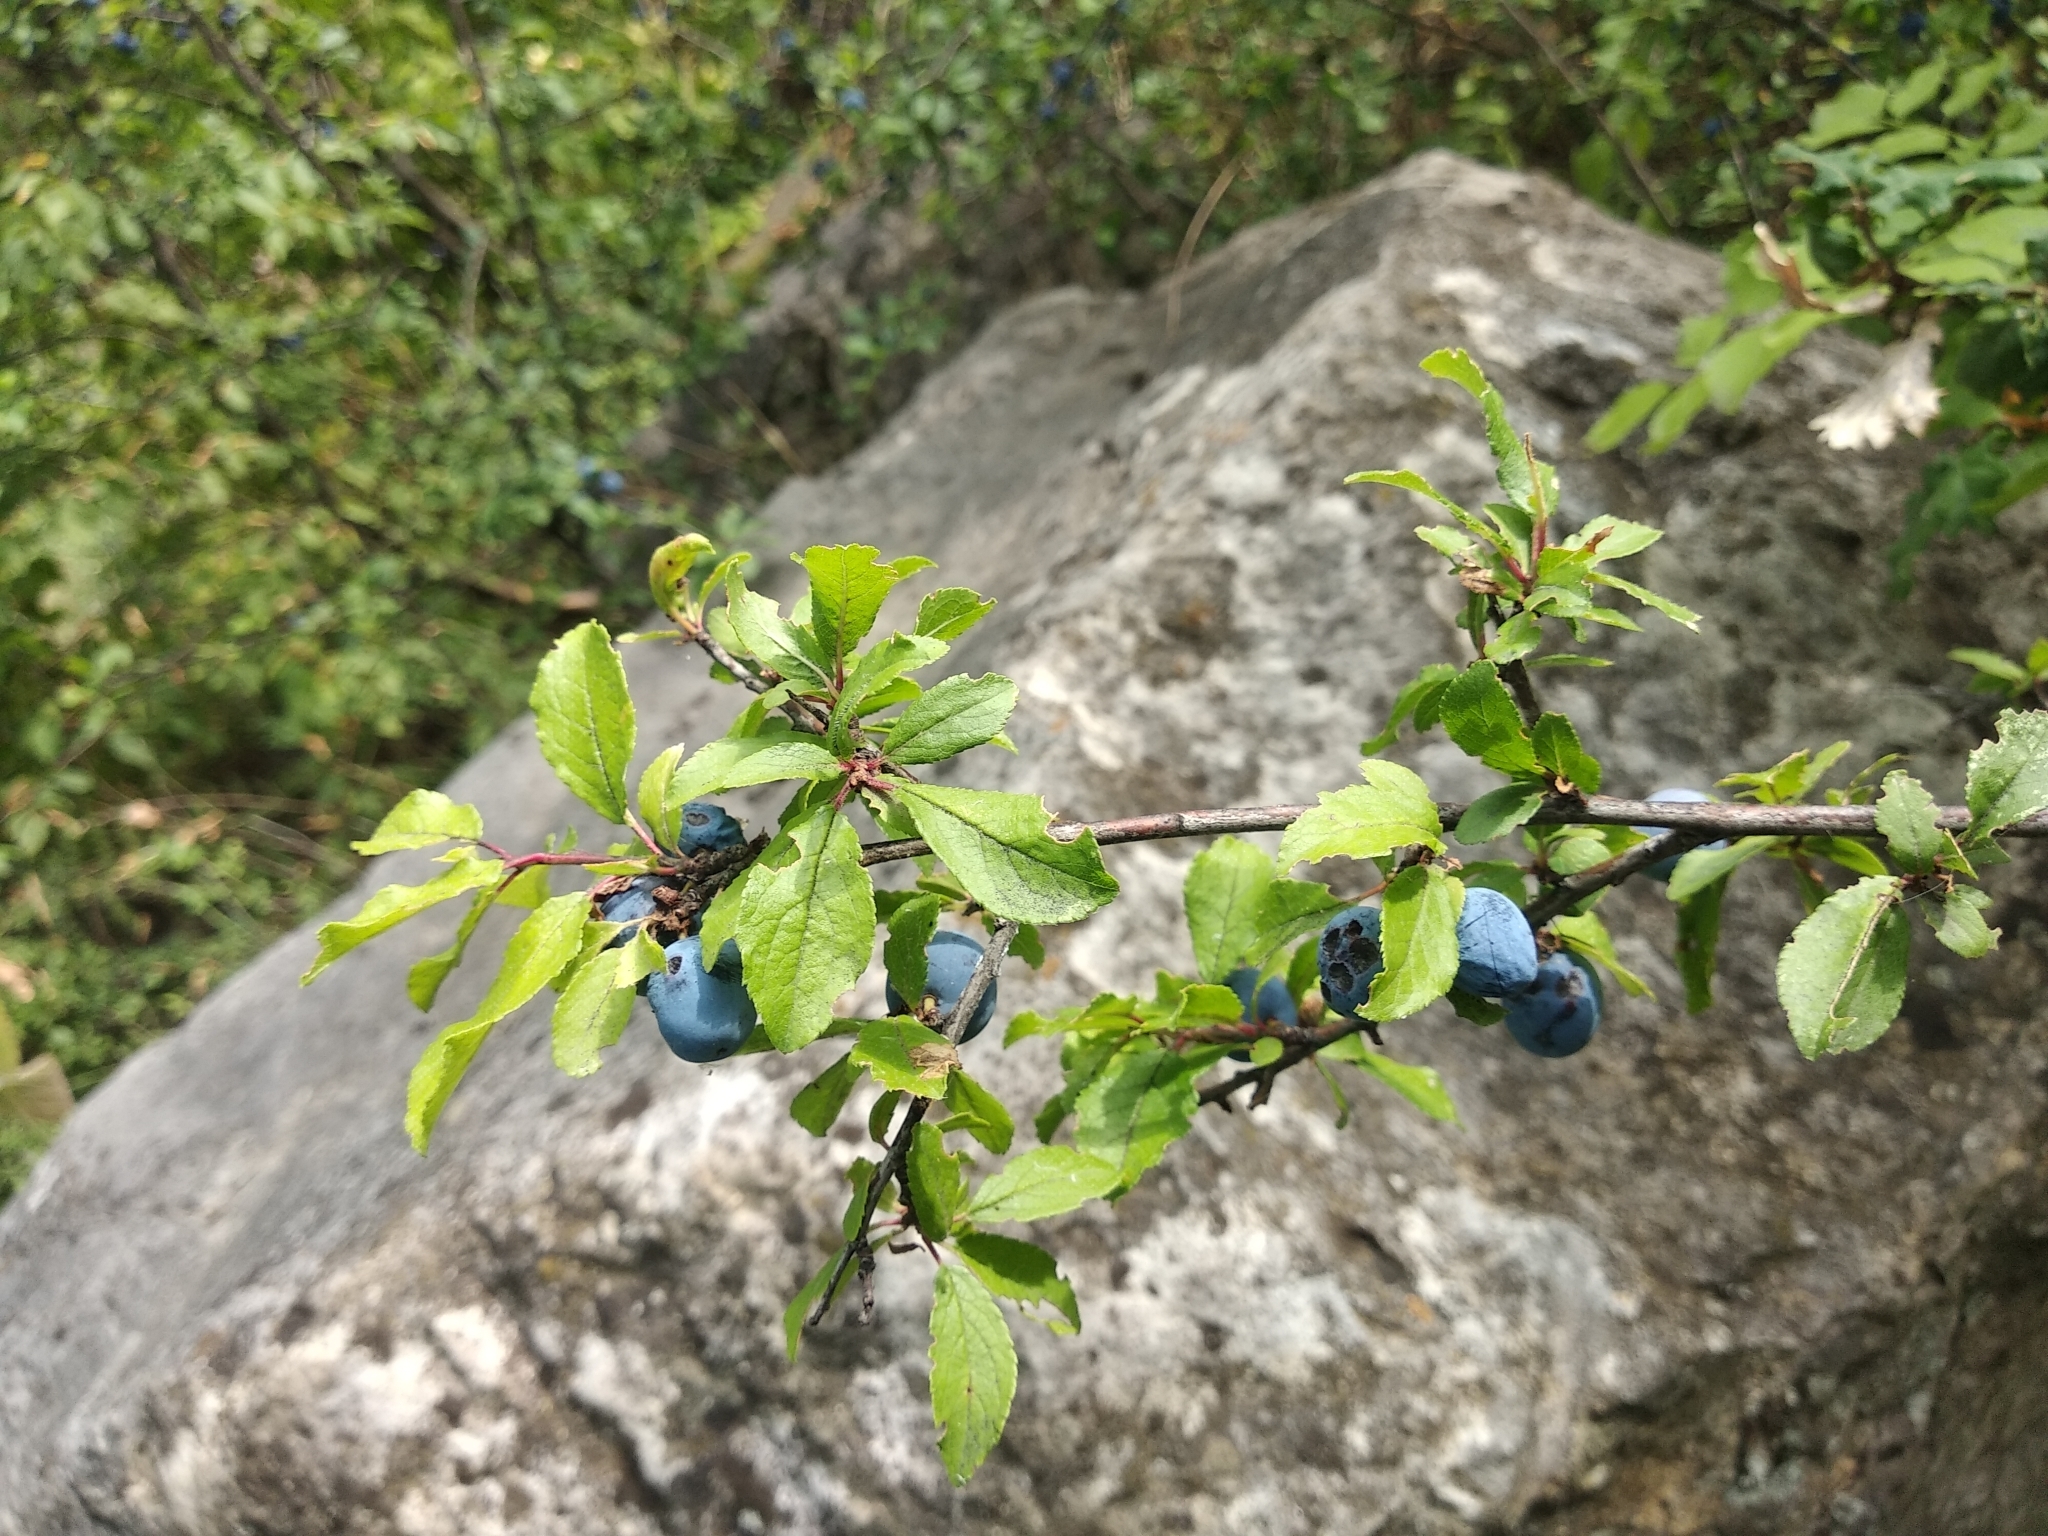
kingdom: Plantae
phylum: Tracheophyta
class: Magnoliopsida
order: Rosales
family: Rosaceae
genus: Prunus
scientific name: Prunus spinosa
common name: Blackthorn
